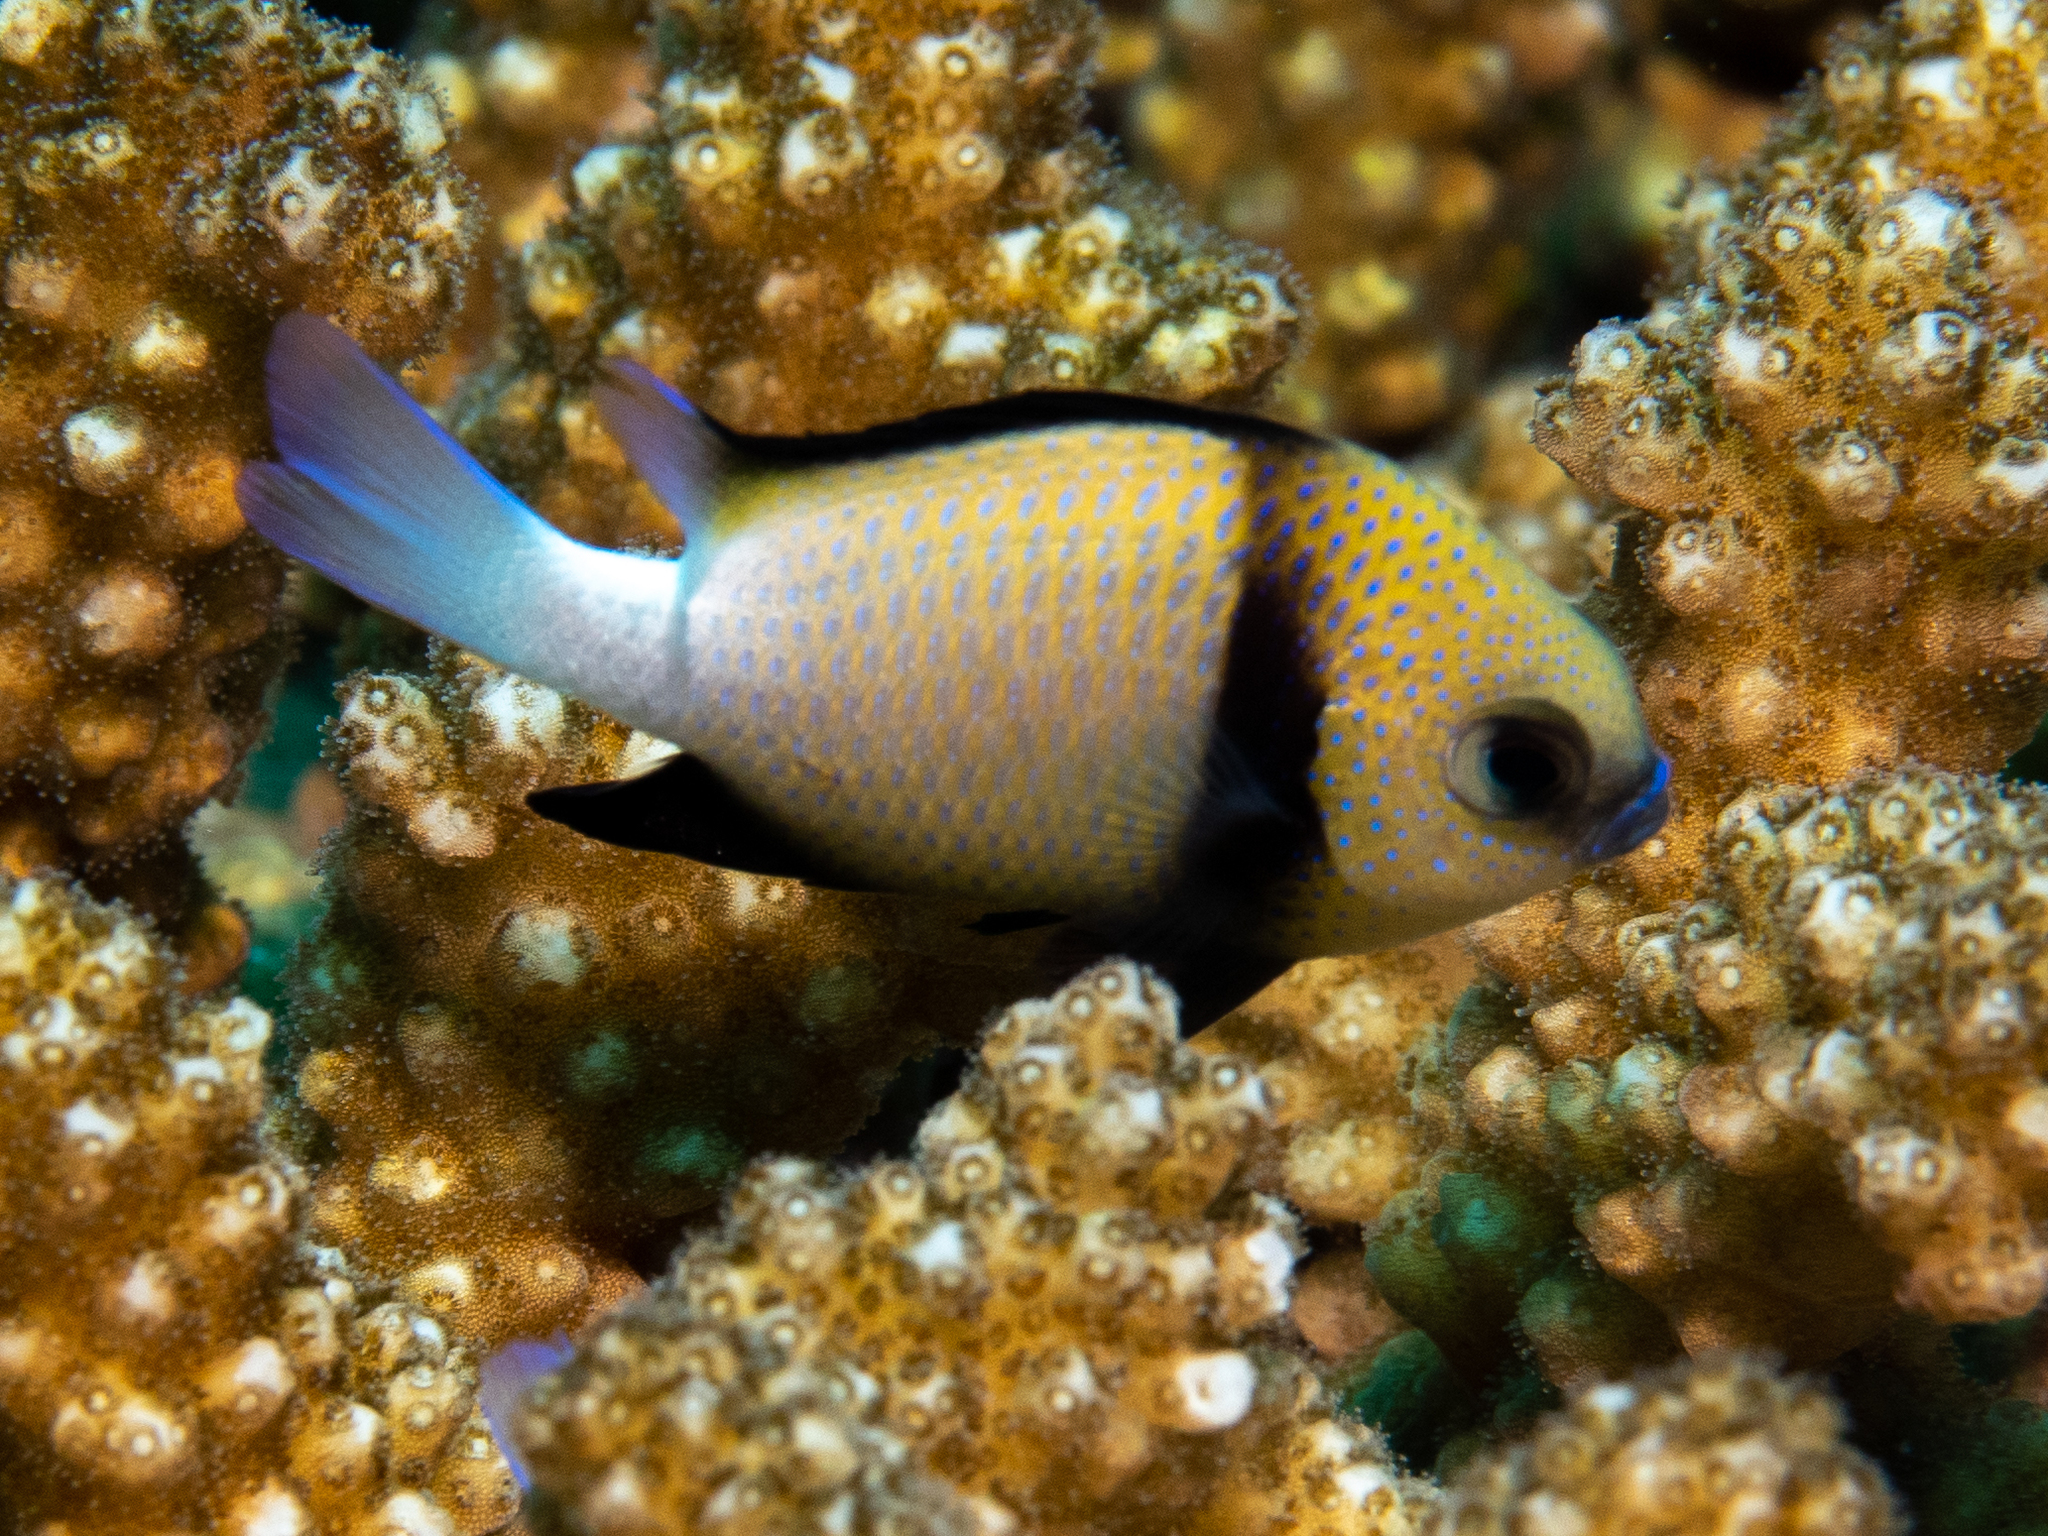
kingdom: Animalia
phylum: Chordata
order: Perciformes
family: Pomacentridae
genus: Dascyllus
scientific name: Dascyllus carneus
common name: Indian dascyllus
